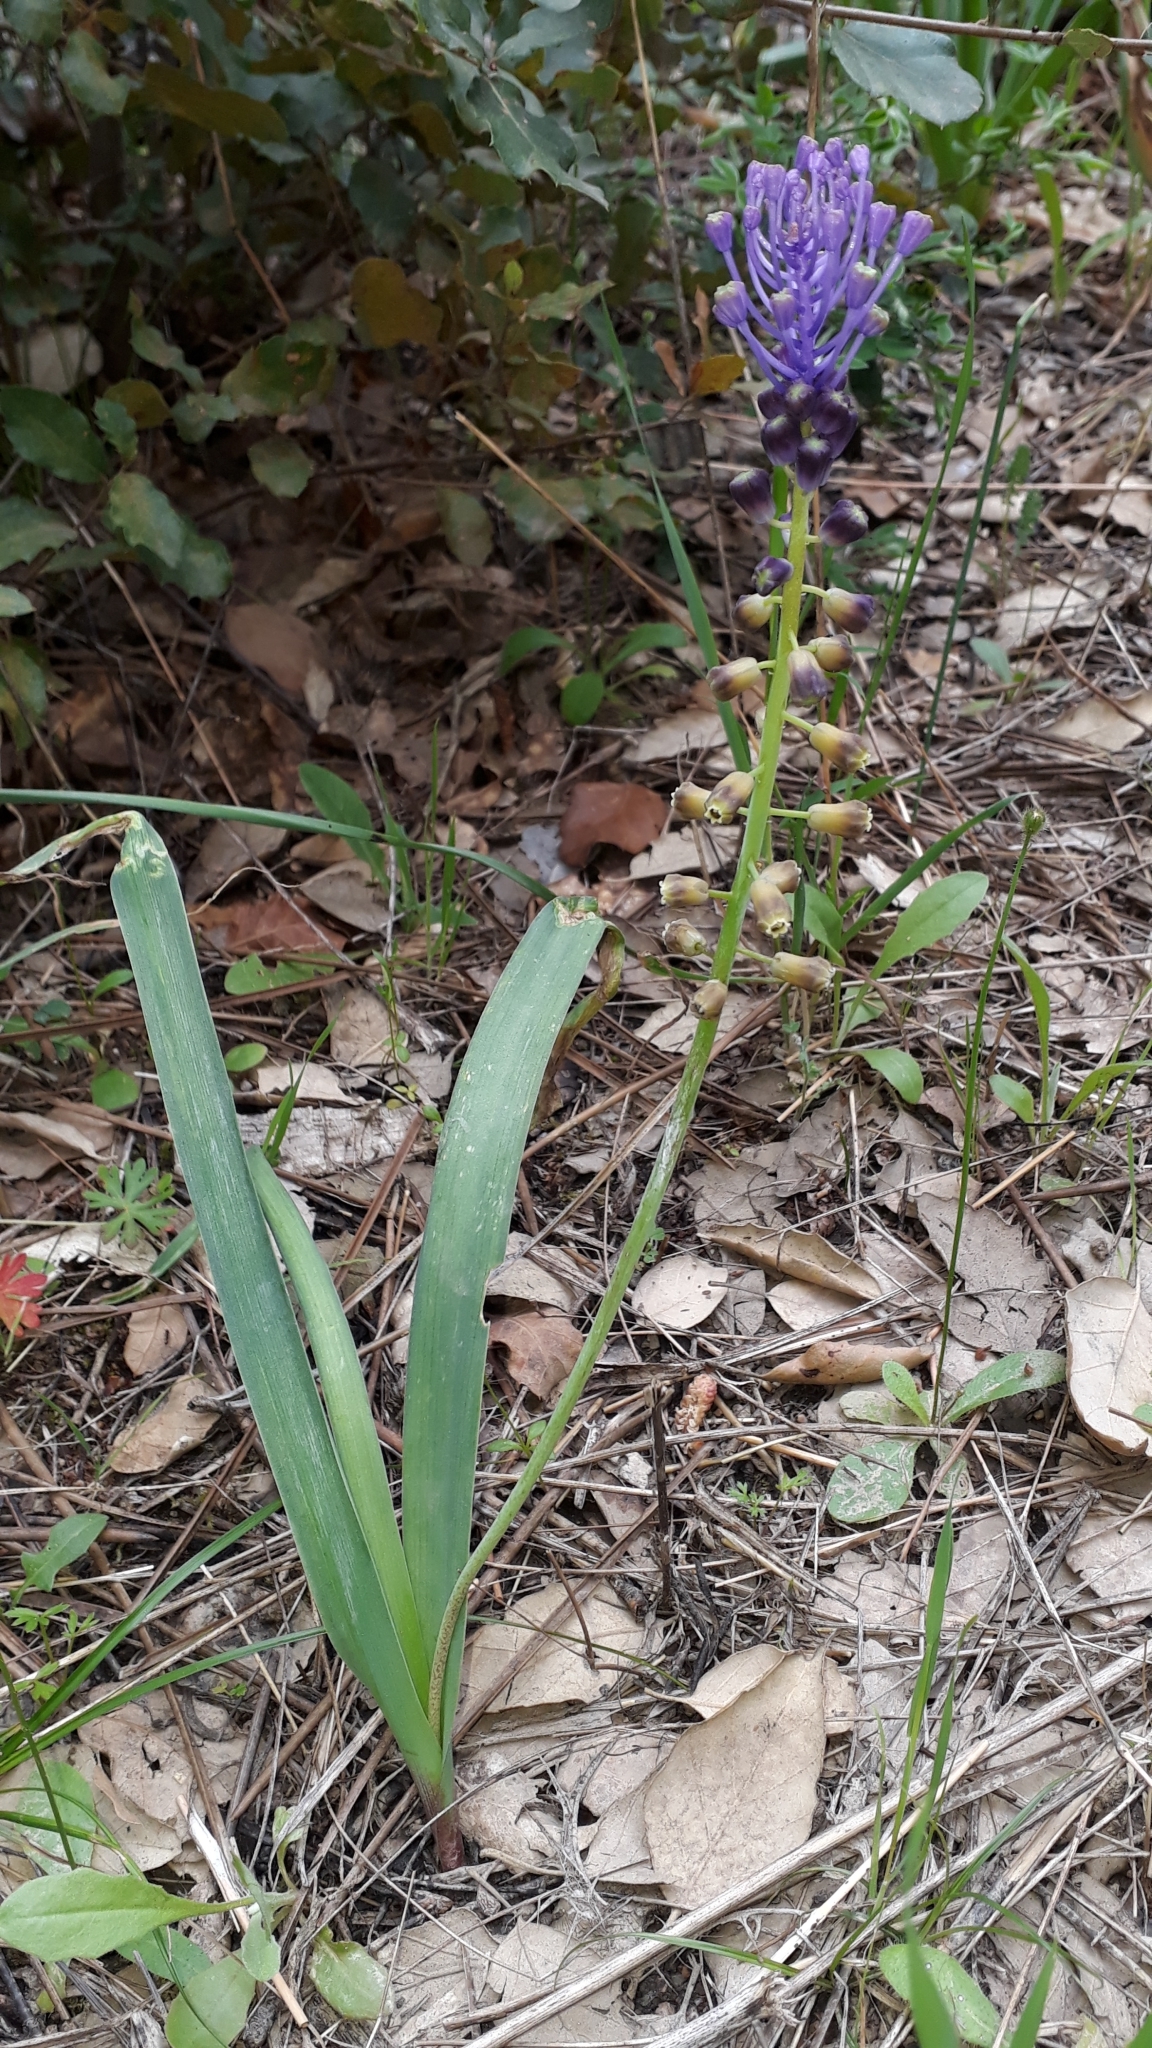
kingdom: Plantae
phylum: Tracheophyta
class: Liliopsida
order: Asparagales
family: Asparagaceae
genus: Muscari
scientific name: Muscari comosum
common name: Tassel hyacinth
